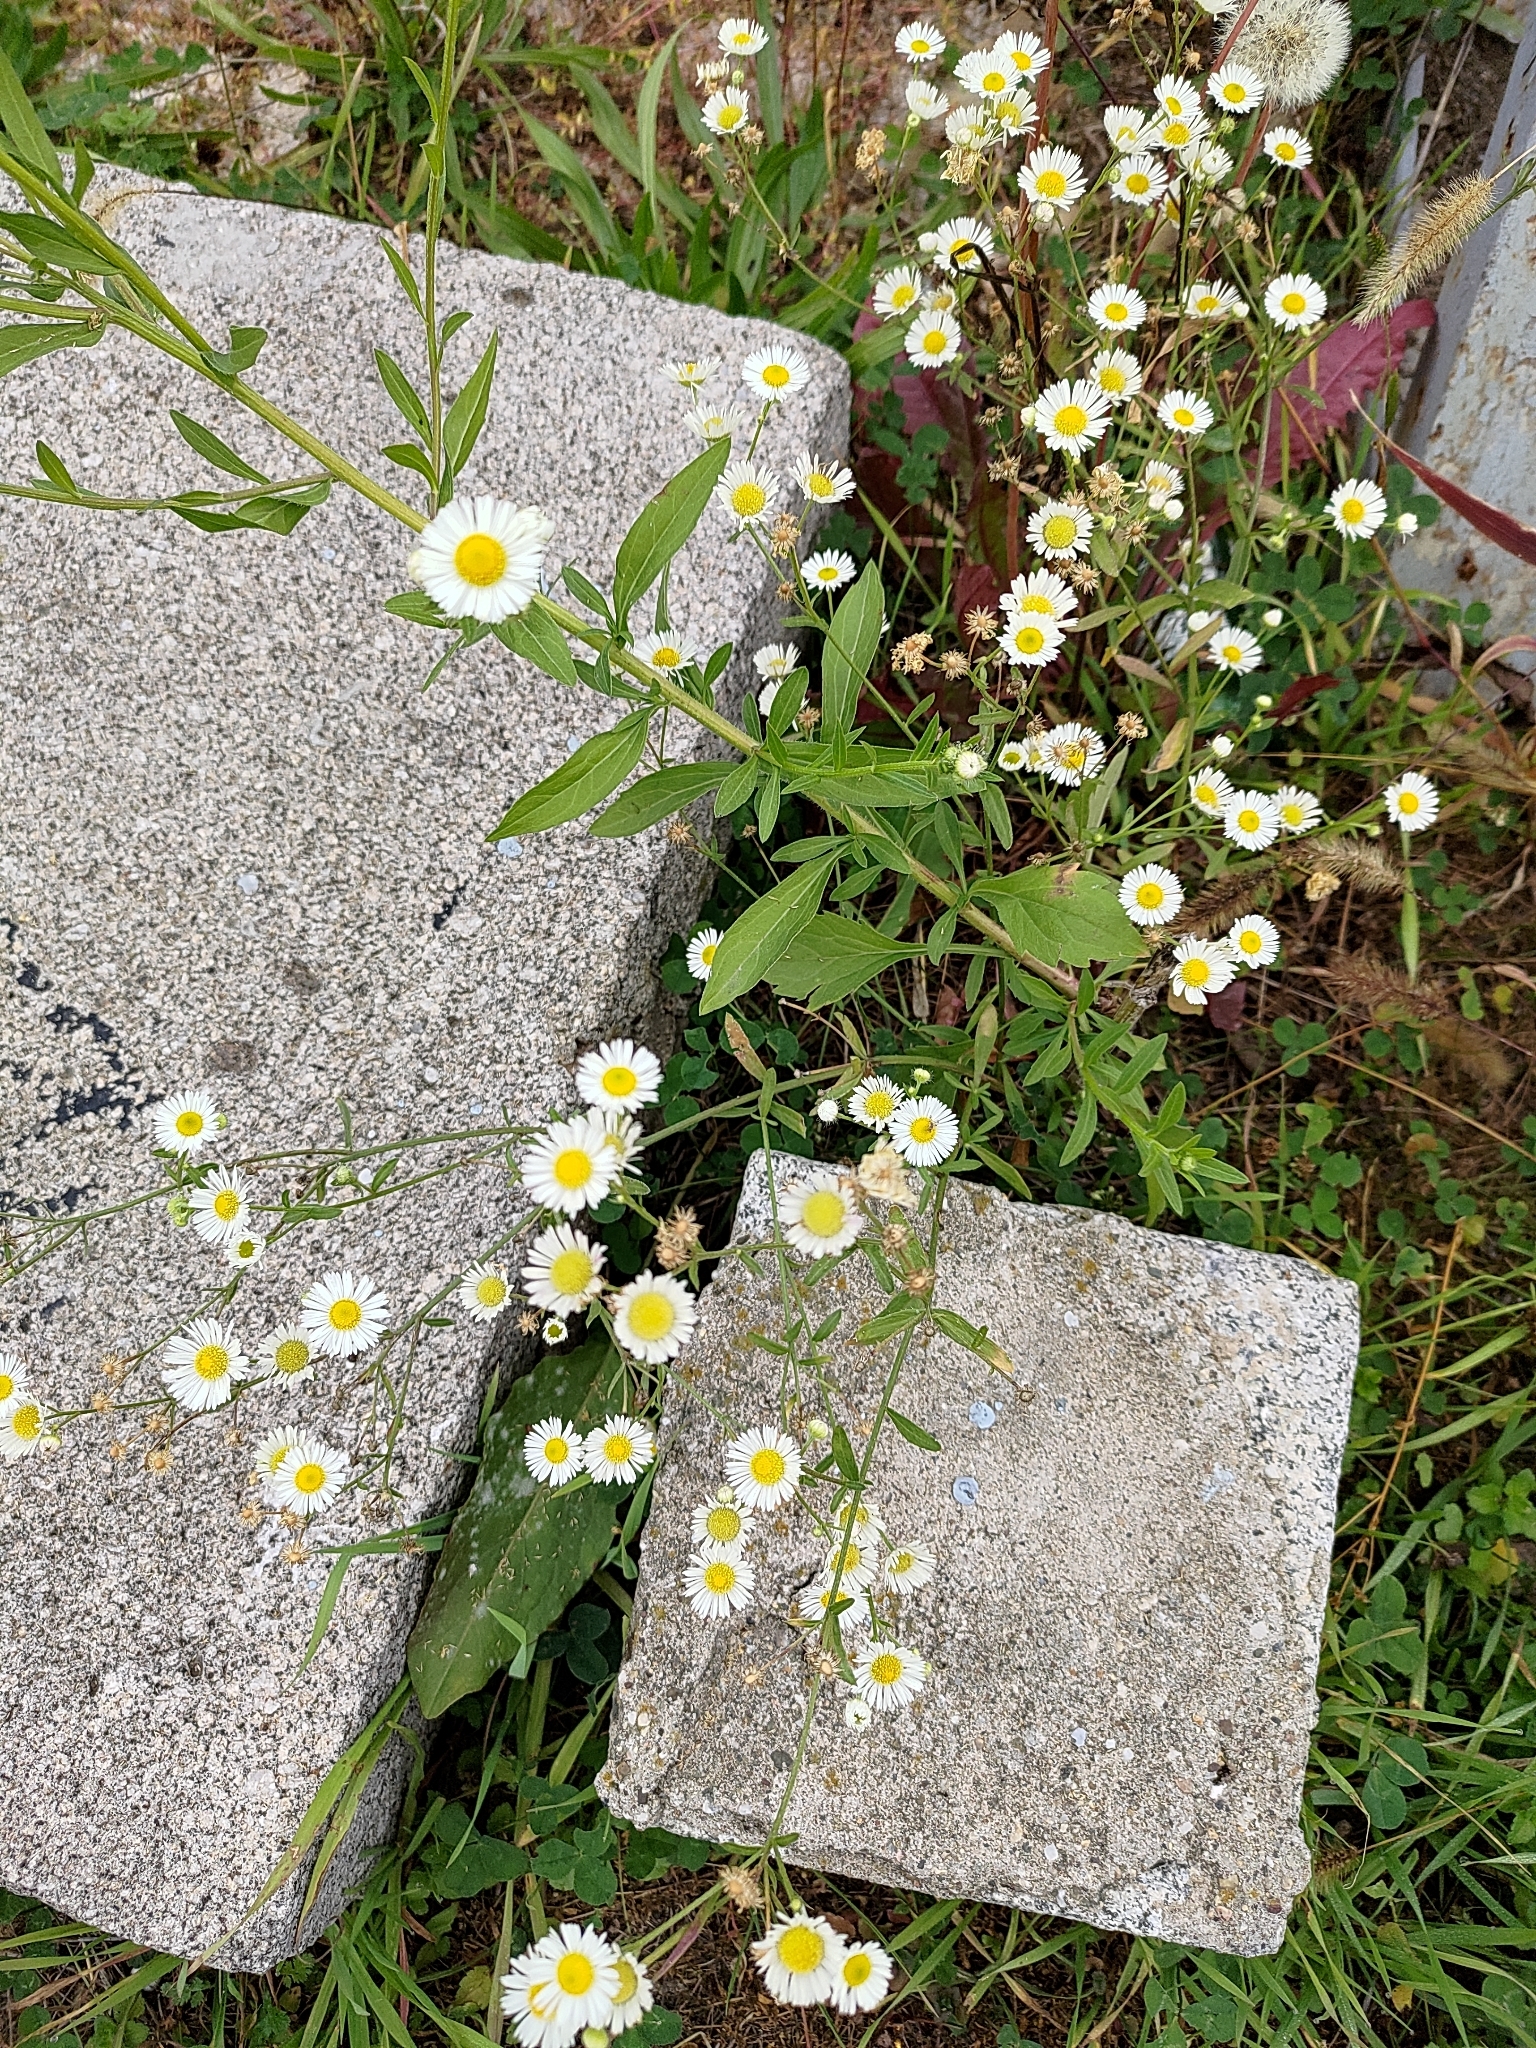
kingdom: Plantae
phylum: Tracheophyta
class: Magnoliopsida
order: Asterales
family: Asteraceae
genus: Erigeron
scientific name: Erigeron annuus
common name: Tall fleabane
